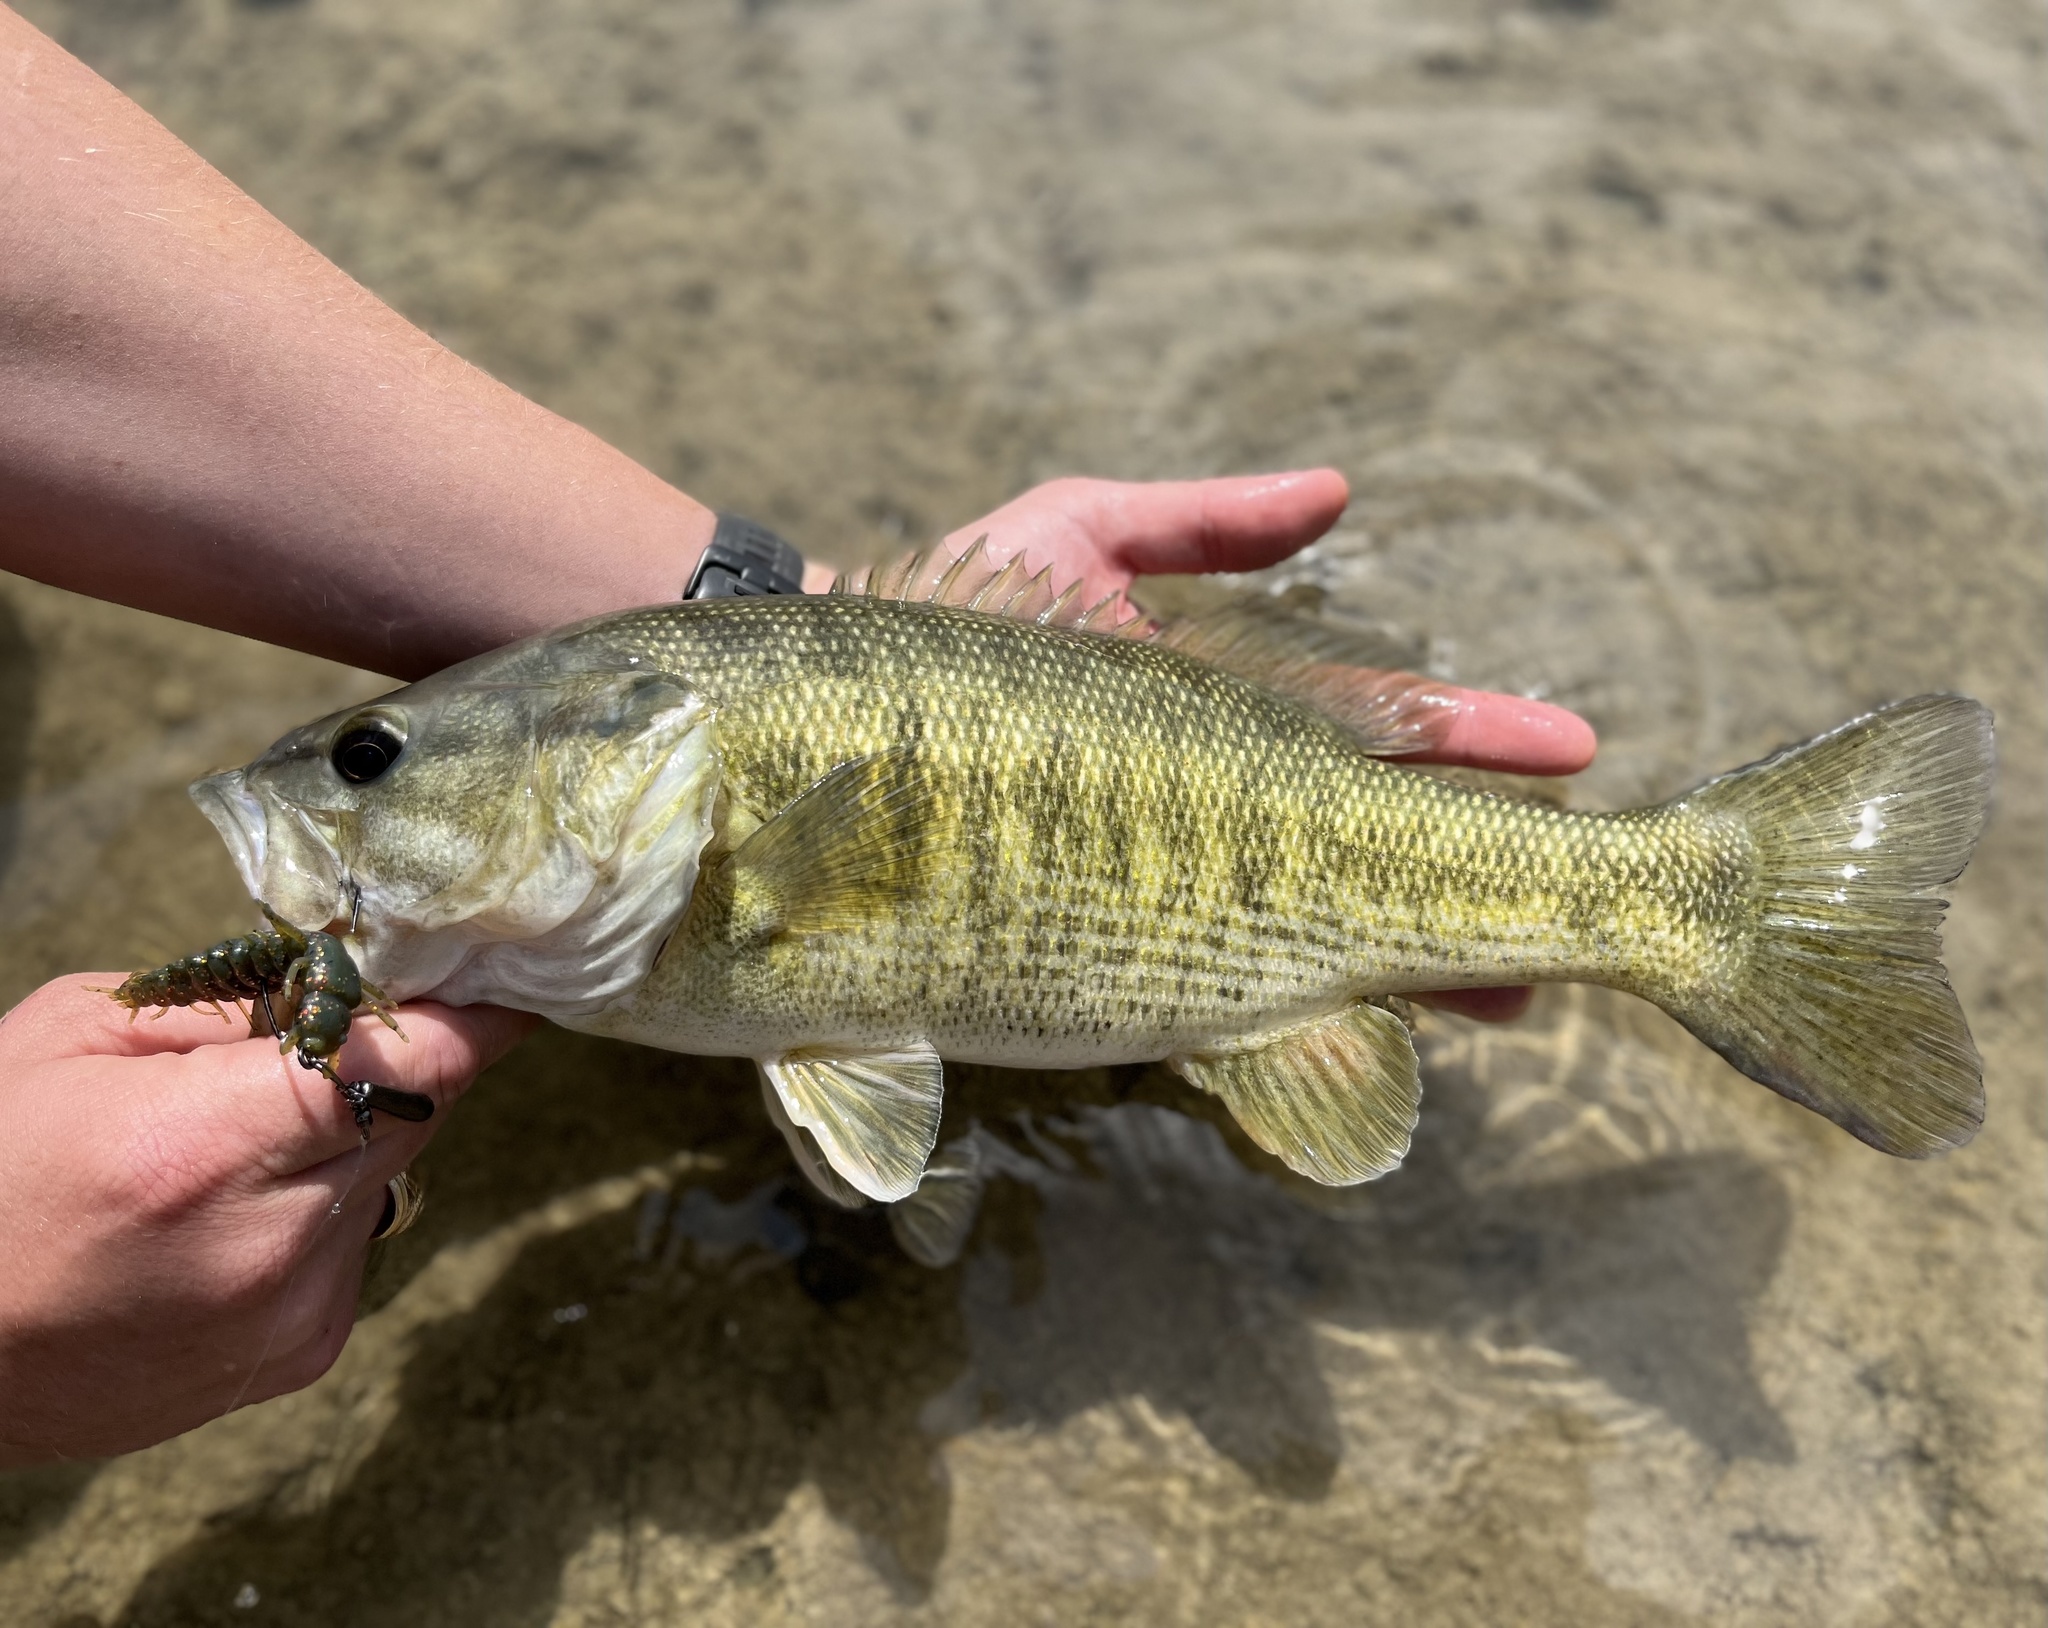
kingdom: Animalia
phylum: Chordata
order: Perciformes
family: Centrarchidae
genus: Micropterus
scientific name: Micropterus treculii
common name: Guadalupe bass
